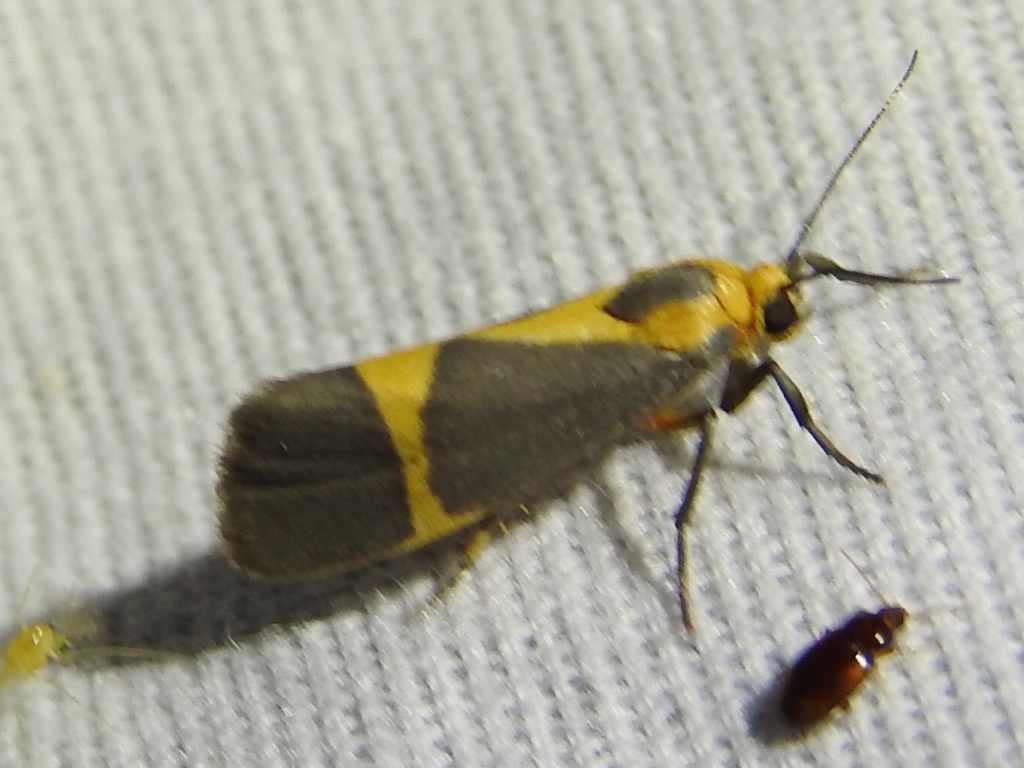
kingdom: Animalia
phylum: Arthropoda
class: Insecta
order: Lepidoptera
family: Erebidae
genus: Cisthene
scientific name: Cisthene tenuifascia
